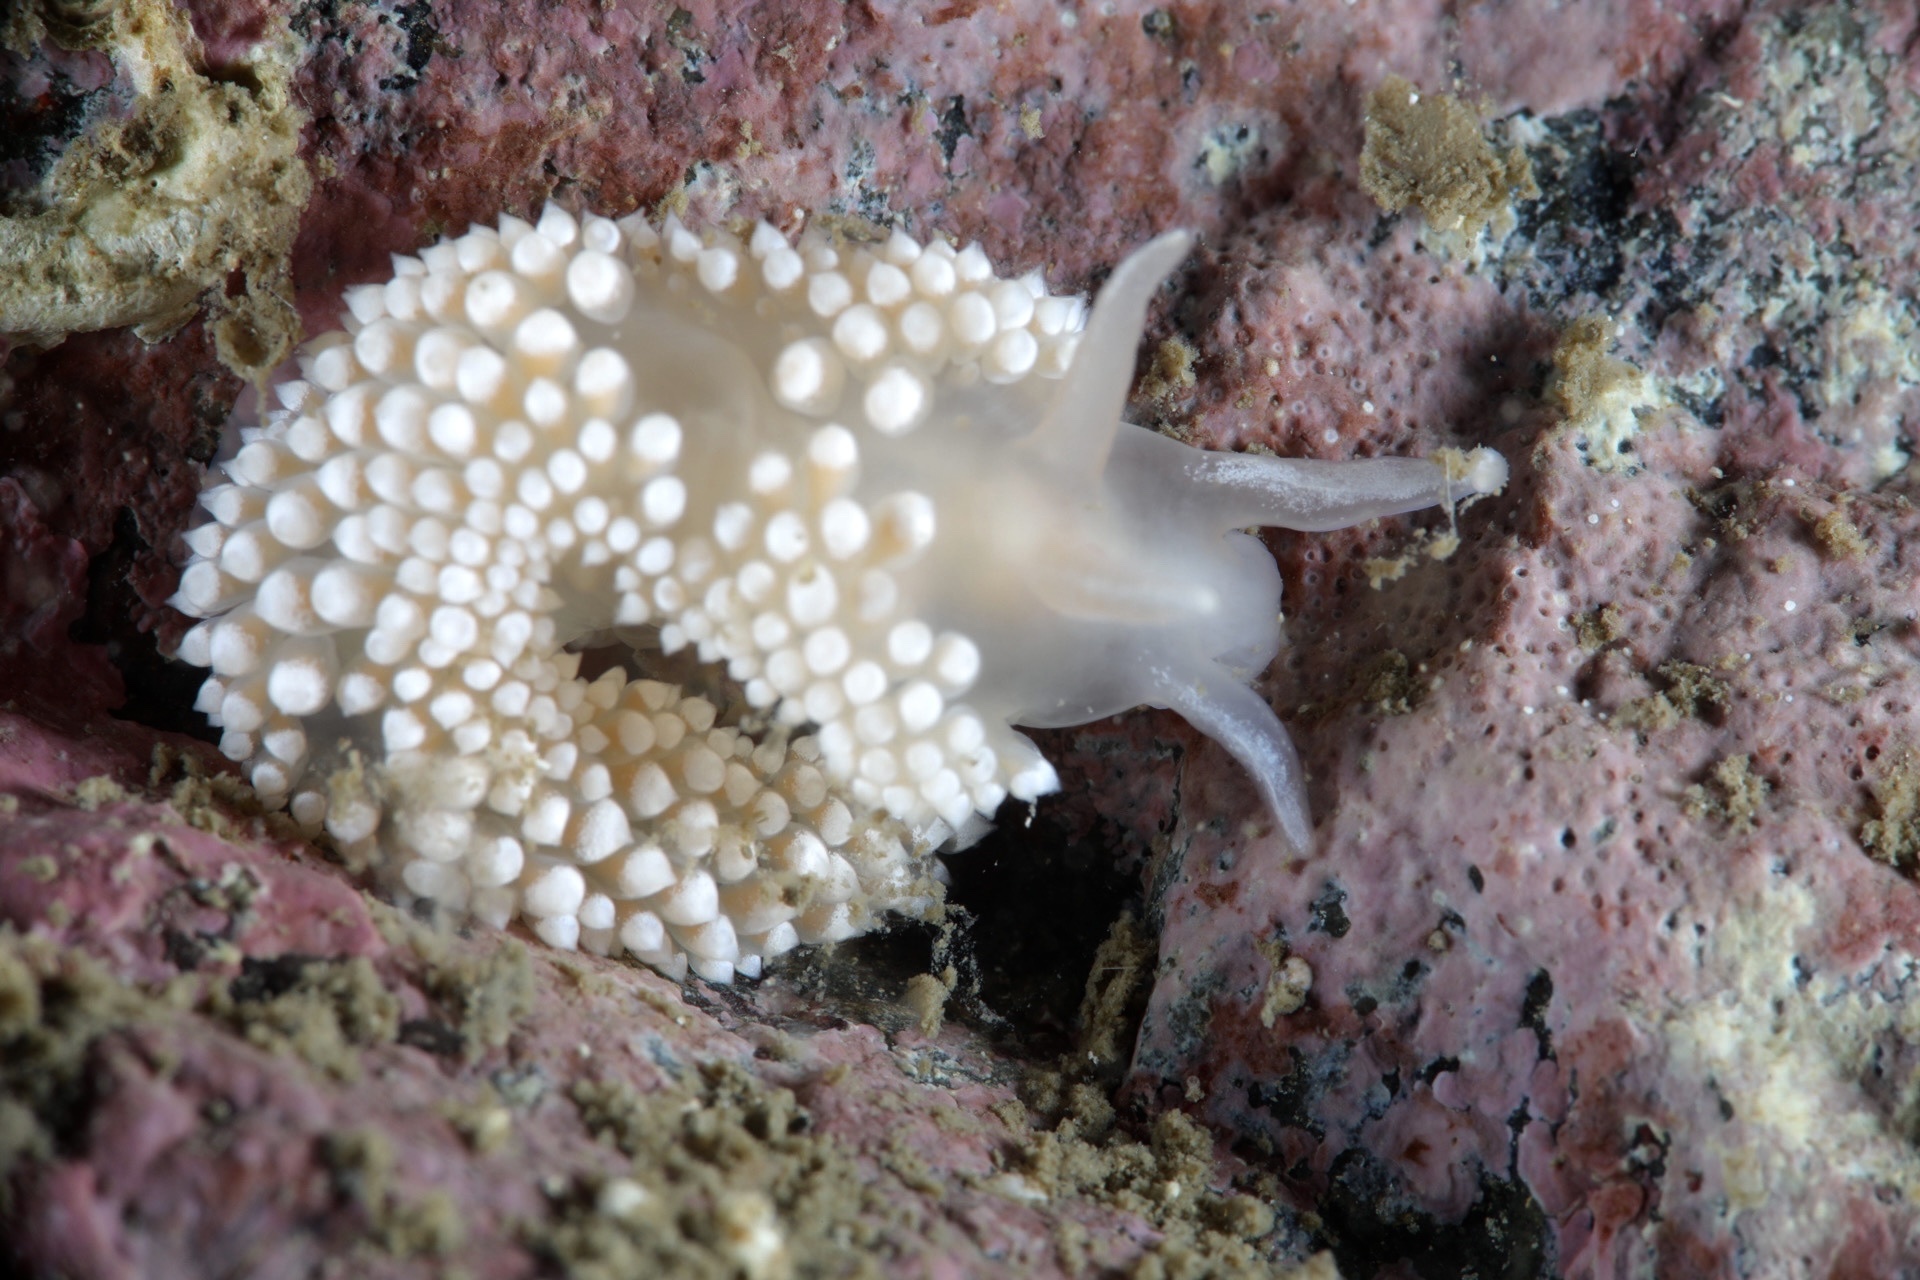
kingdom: Animalia
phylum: Mollusca
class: Gastropoda
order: Nudibranchia
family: Coryphellidae
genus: Coryphella
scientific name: Coryphella verrucosa
